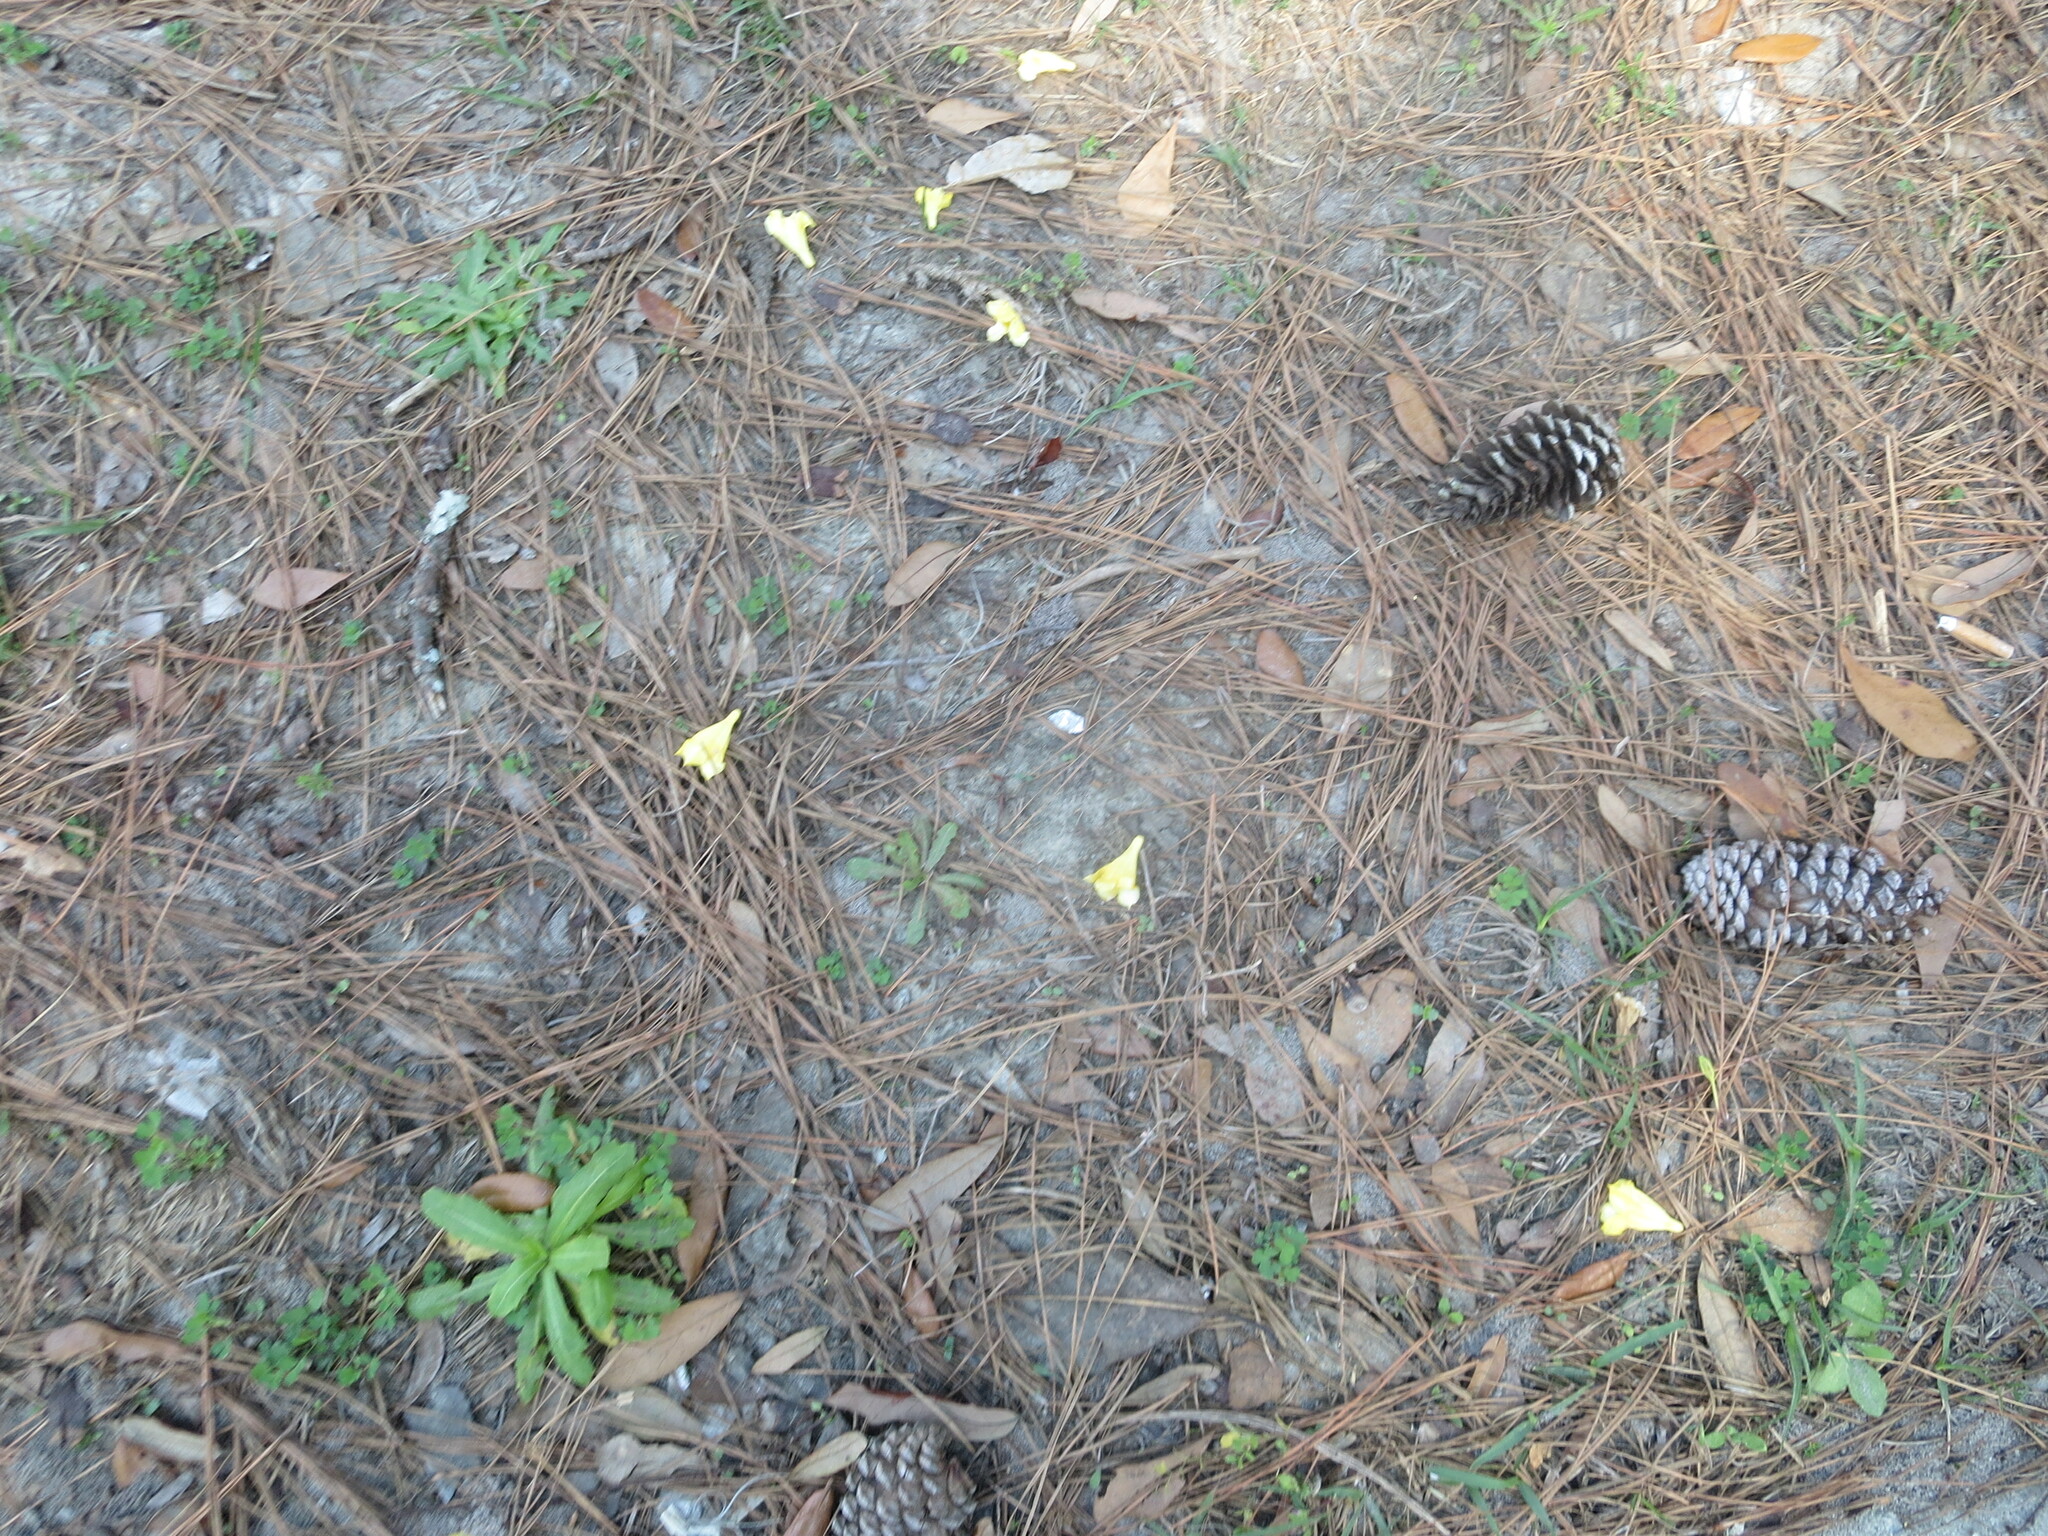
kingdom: Plantae
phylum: Tracheophyta
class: Magnoliopsida
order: Gentianales
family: Gelsemiaceae
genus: Gelsemium
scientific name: Gelsemium sempervirens
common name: Carolina-jasmine
